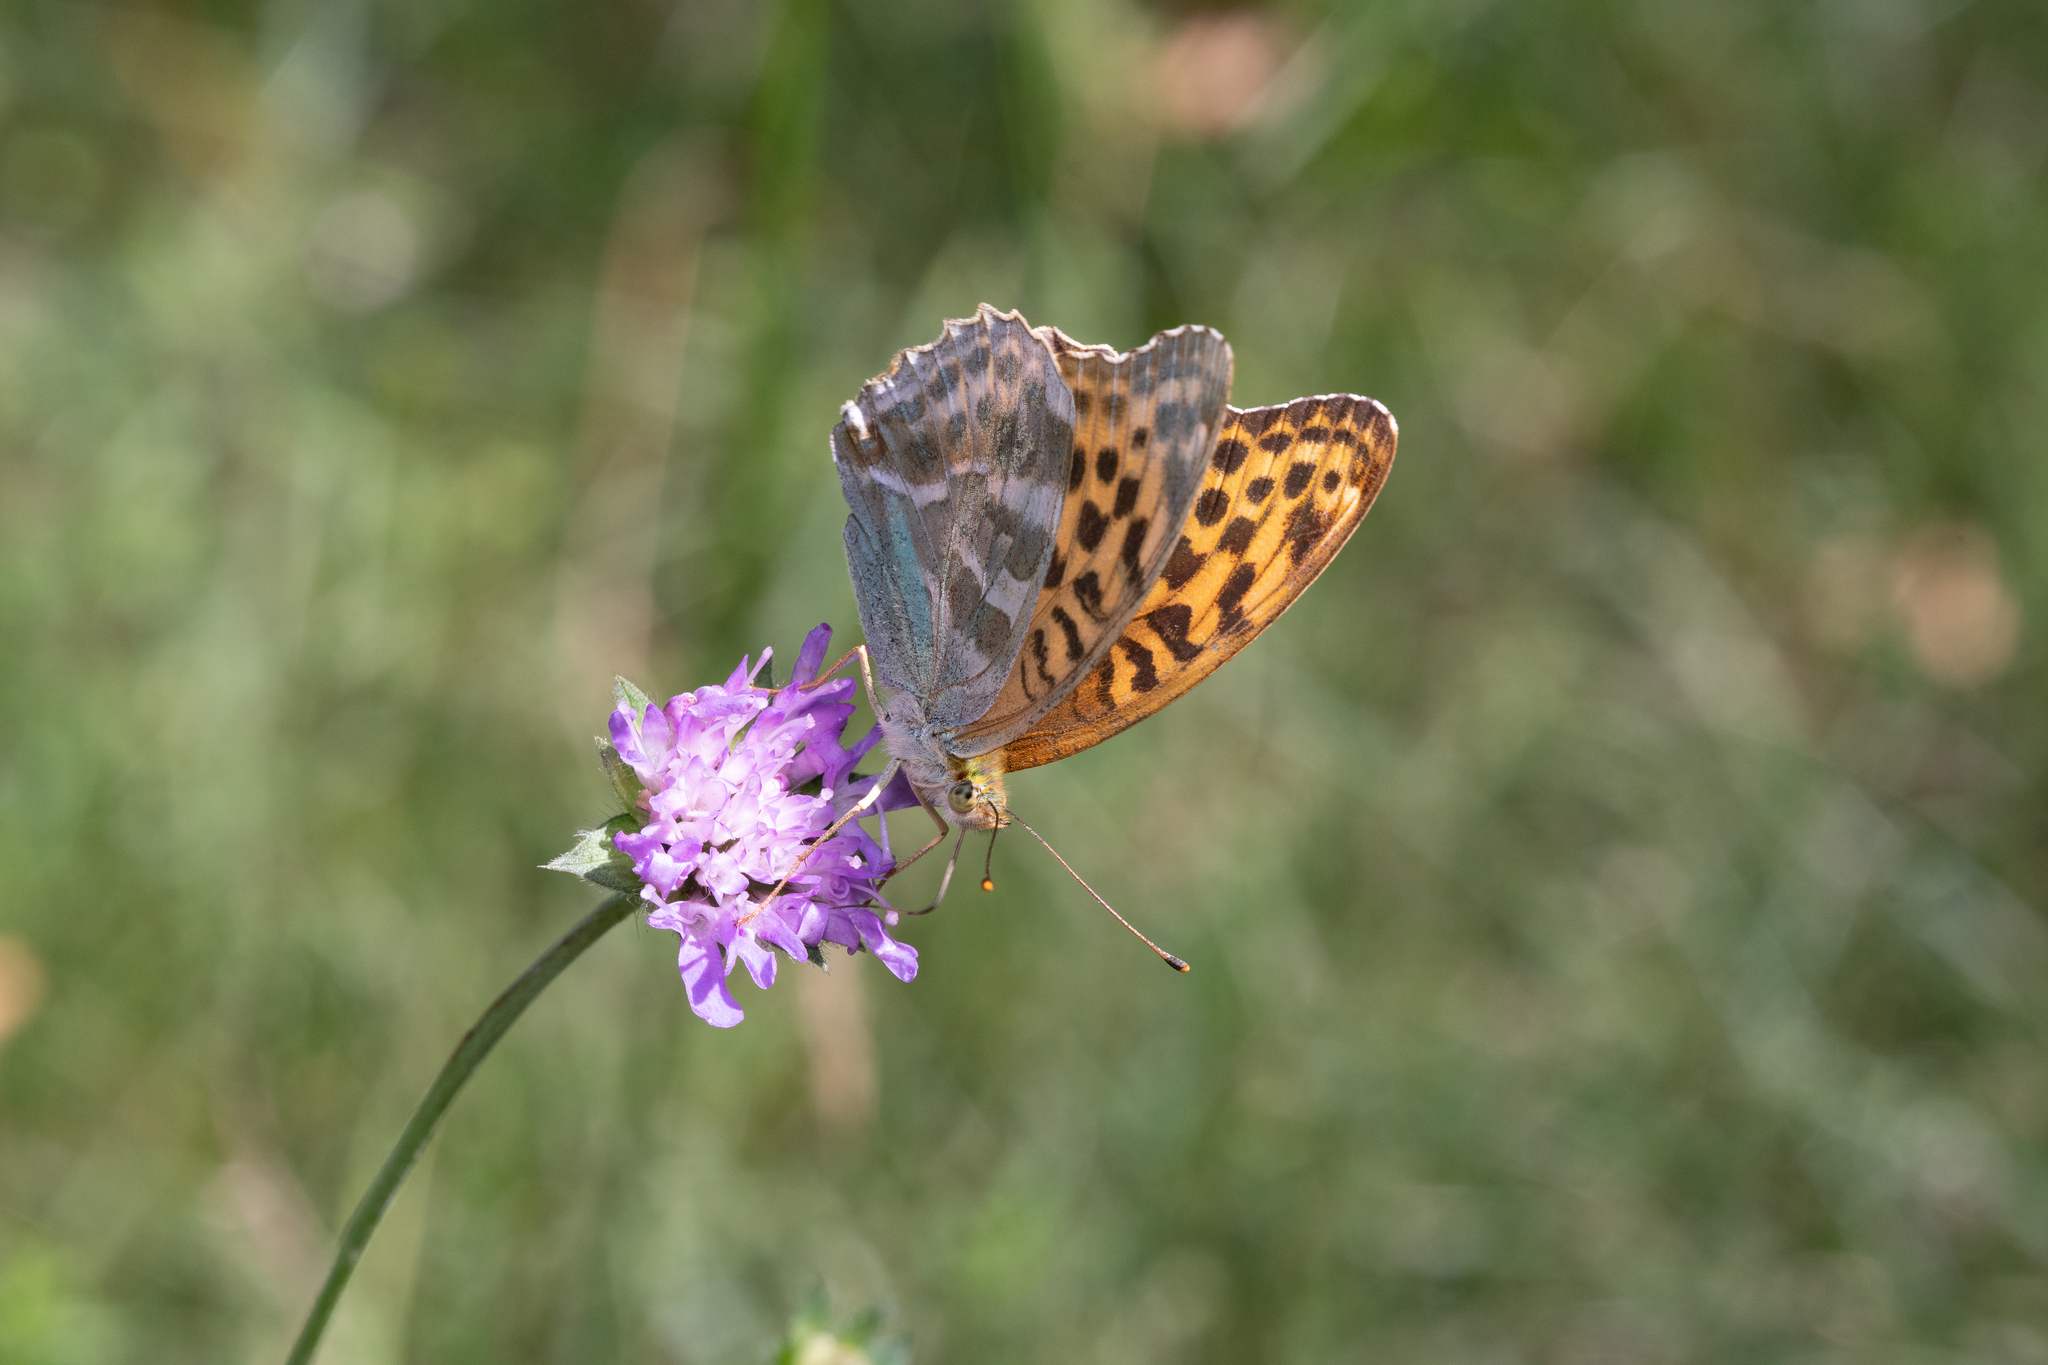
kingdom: Animalia
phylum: Arthropoda
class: Insecta
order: Lepidoptera
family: Nymphalidae
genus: Argynnis
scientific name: Argynnis paphia
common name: Silver-washed fritillary
